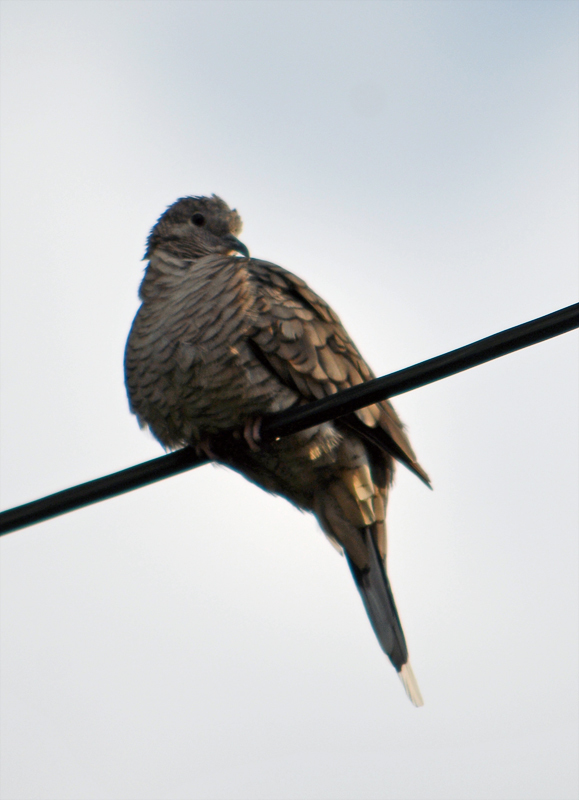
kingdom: Animalia
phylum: Chordata
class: Aves
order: Columbiformes
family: Columbidae
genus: Columbina
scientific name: Columbina inca
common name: Inca dove
